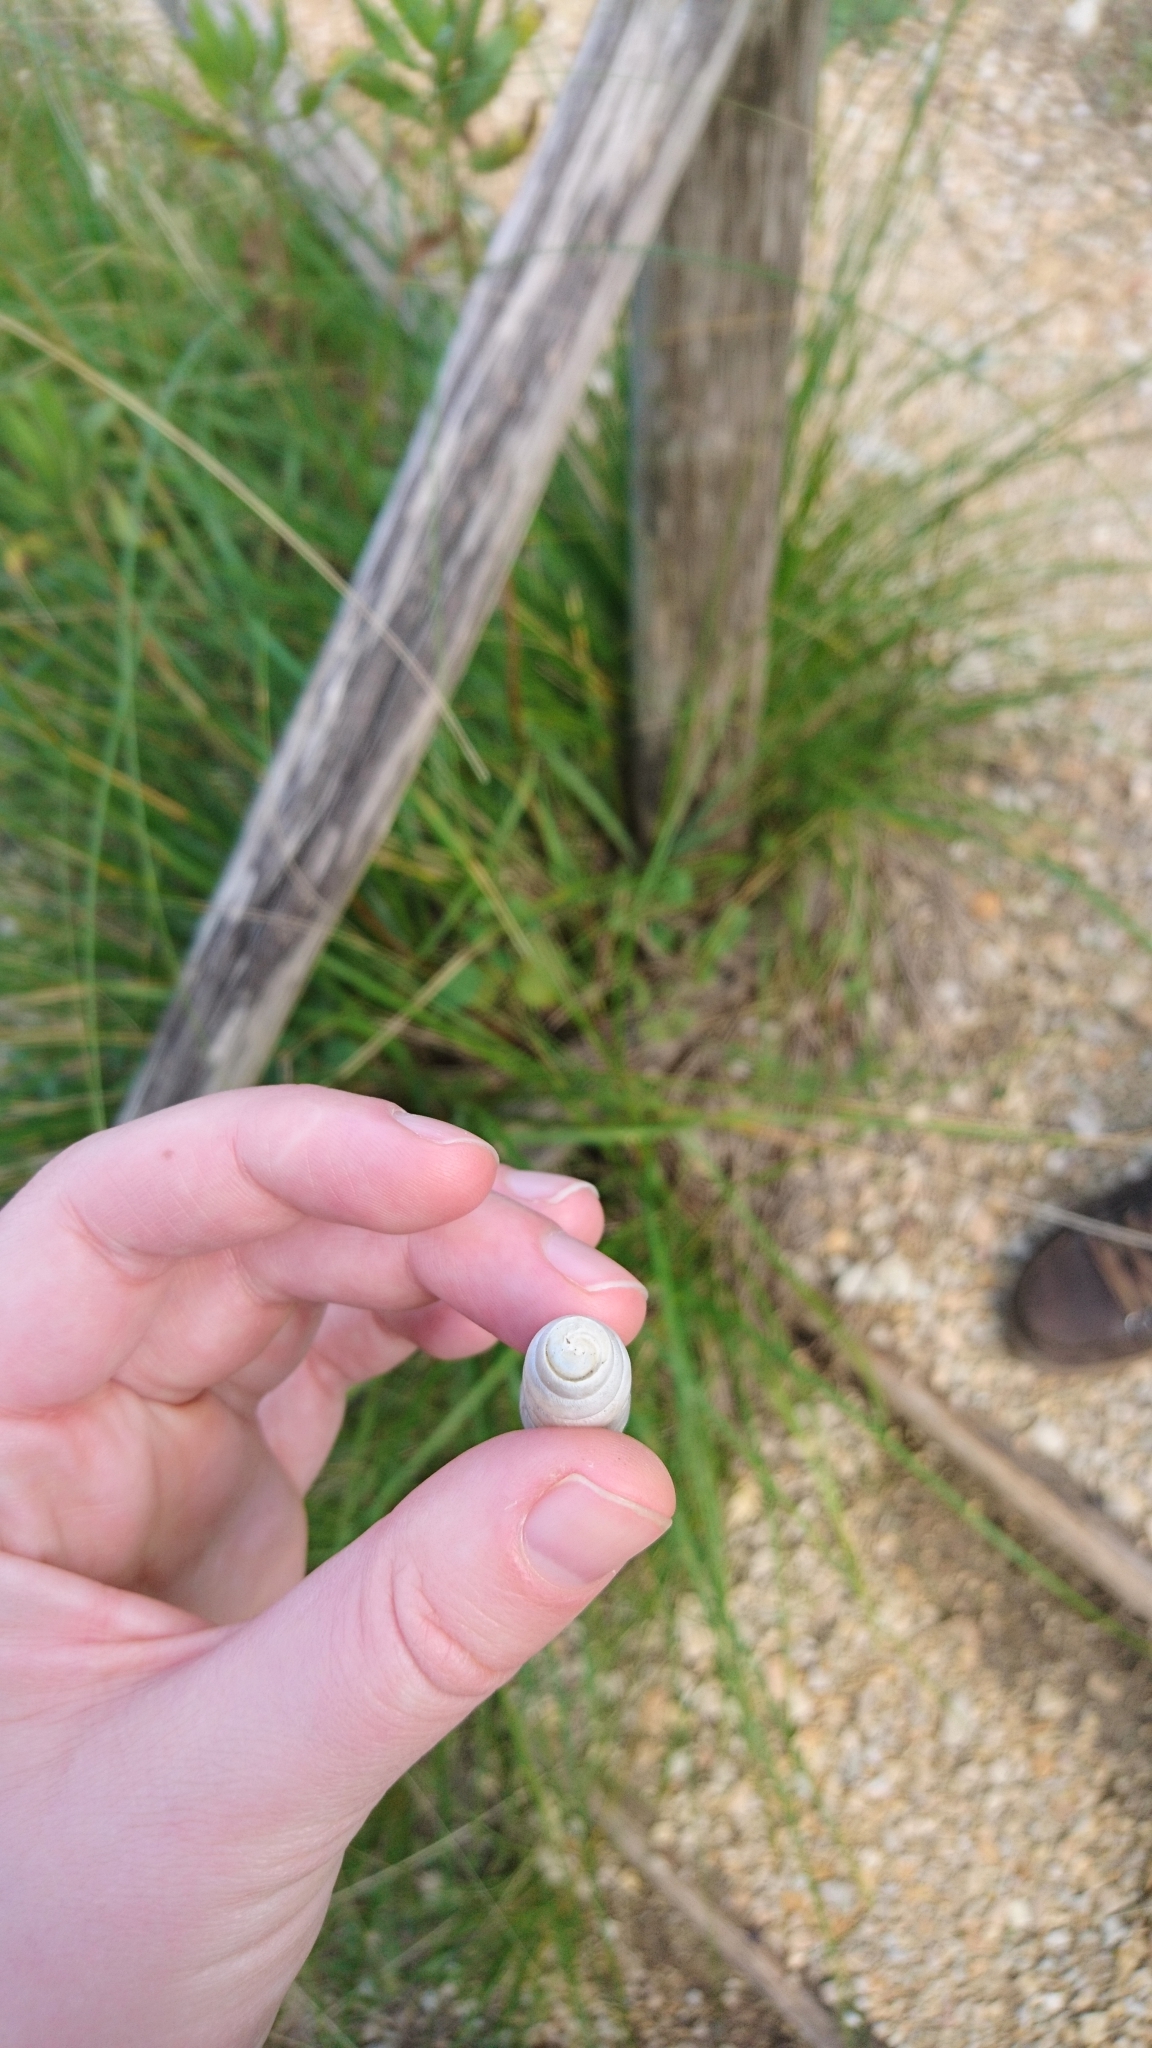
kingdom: Animalia
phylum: Mollusca
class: Gastropoda
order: Stylommatophora
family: Achatinidae
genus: Rumina
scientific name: Rumina decollata
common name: Decollate snail
